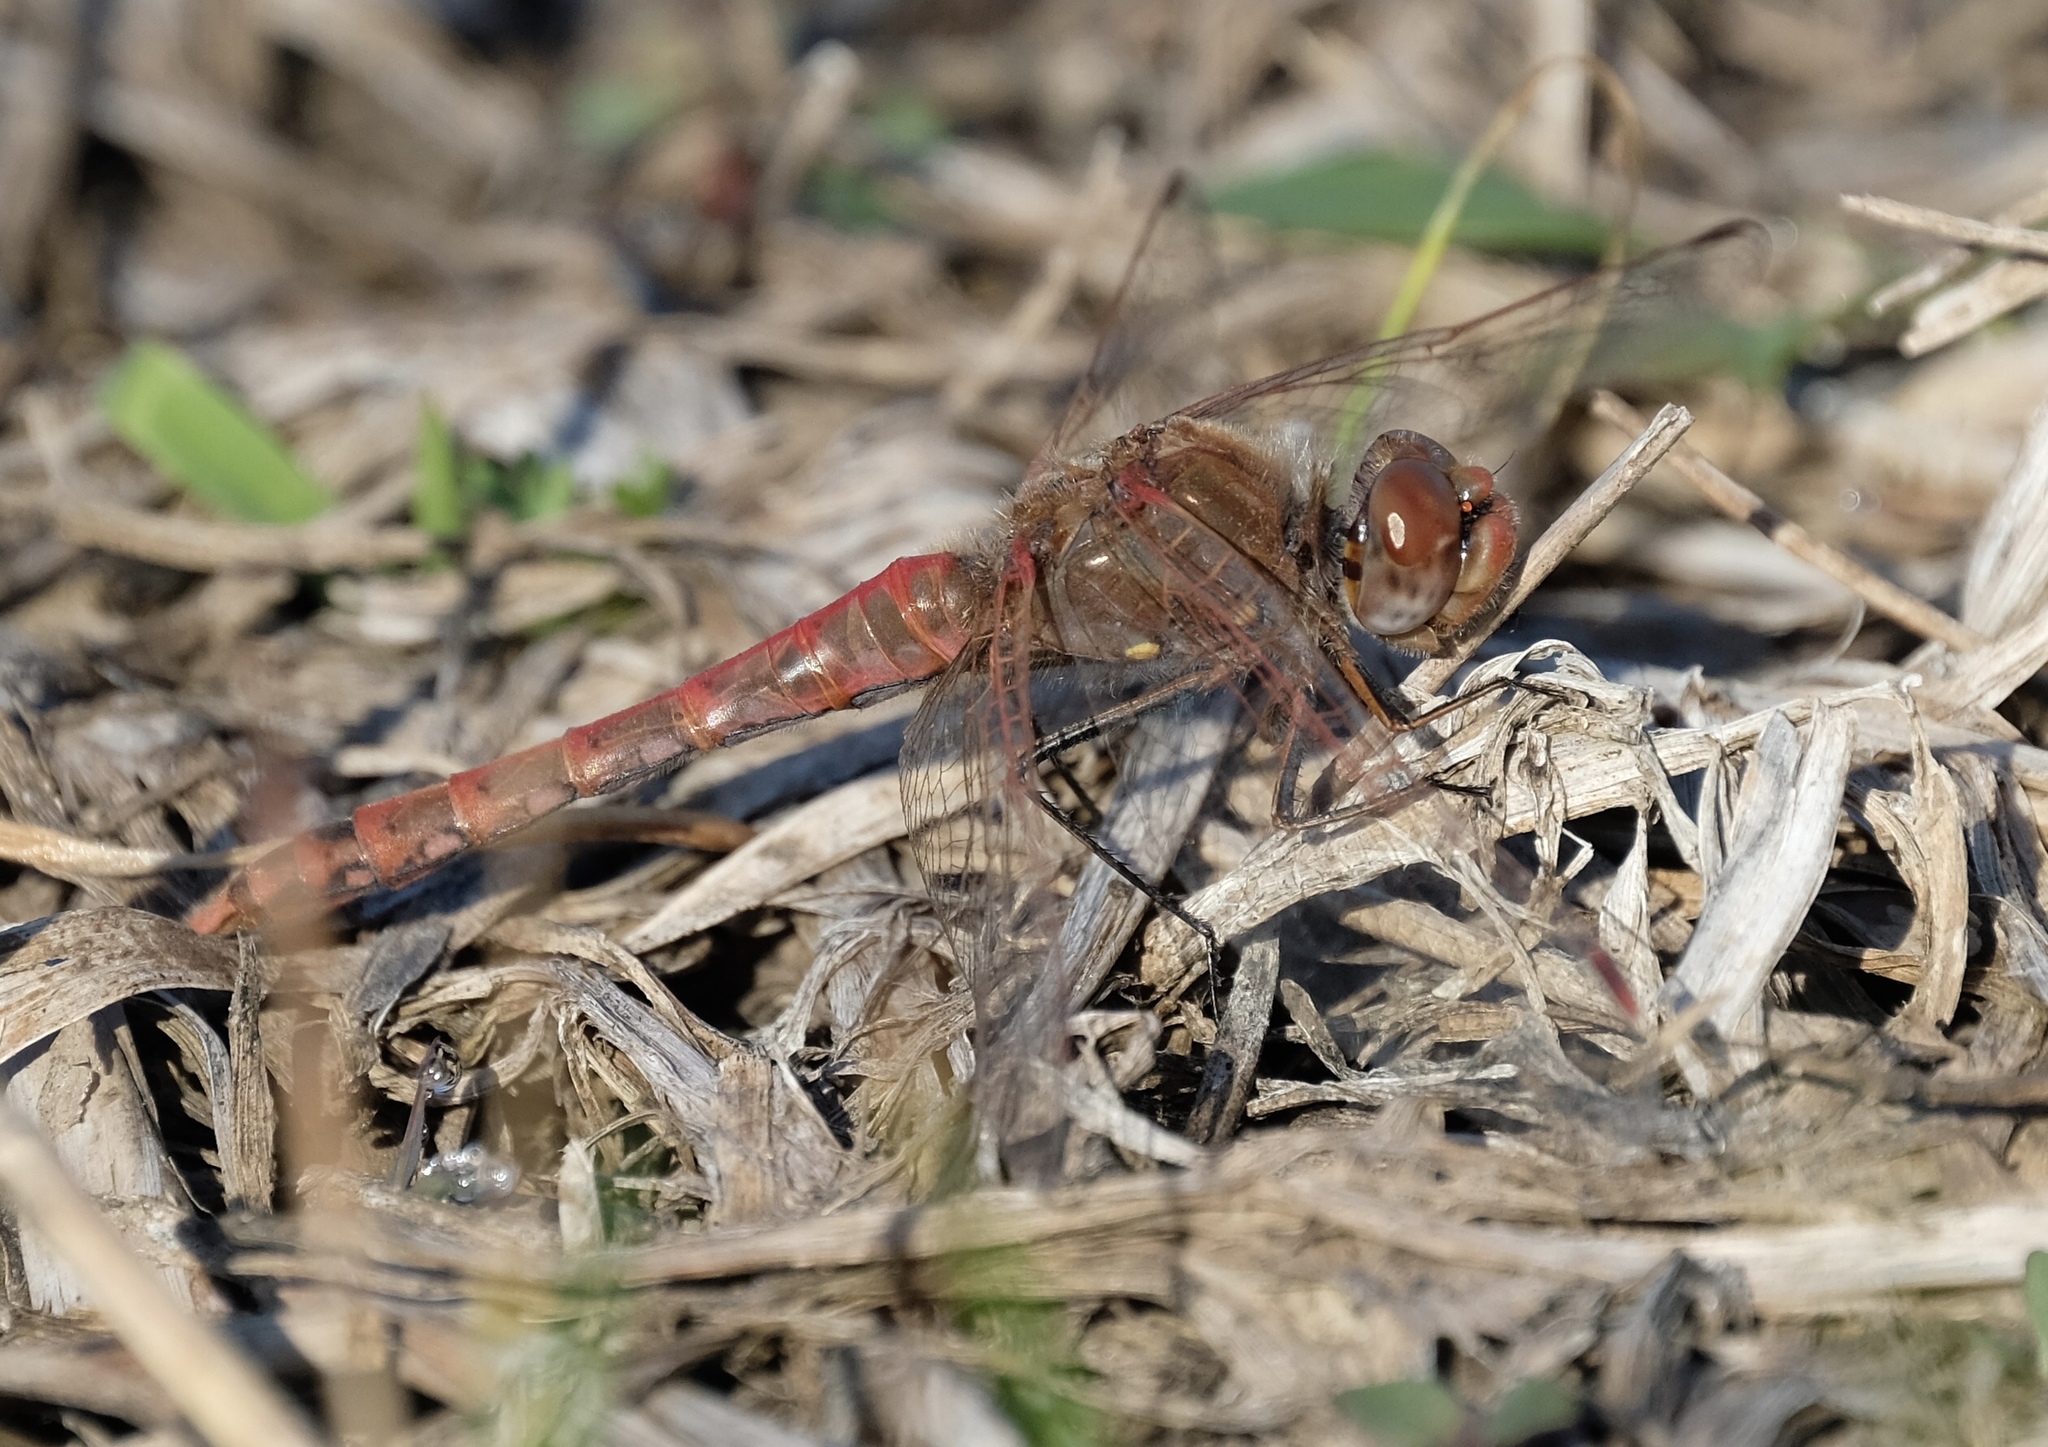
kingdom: Animalia
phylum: Arthropoda
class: Insecta
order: Odonata
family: Libellulidae
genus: Sympetrum
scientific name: Sympetrum corruptum
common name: Variegated meadowhawk
